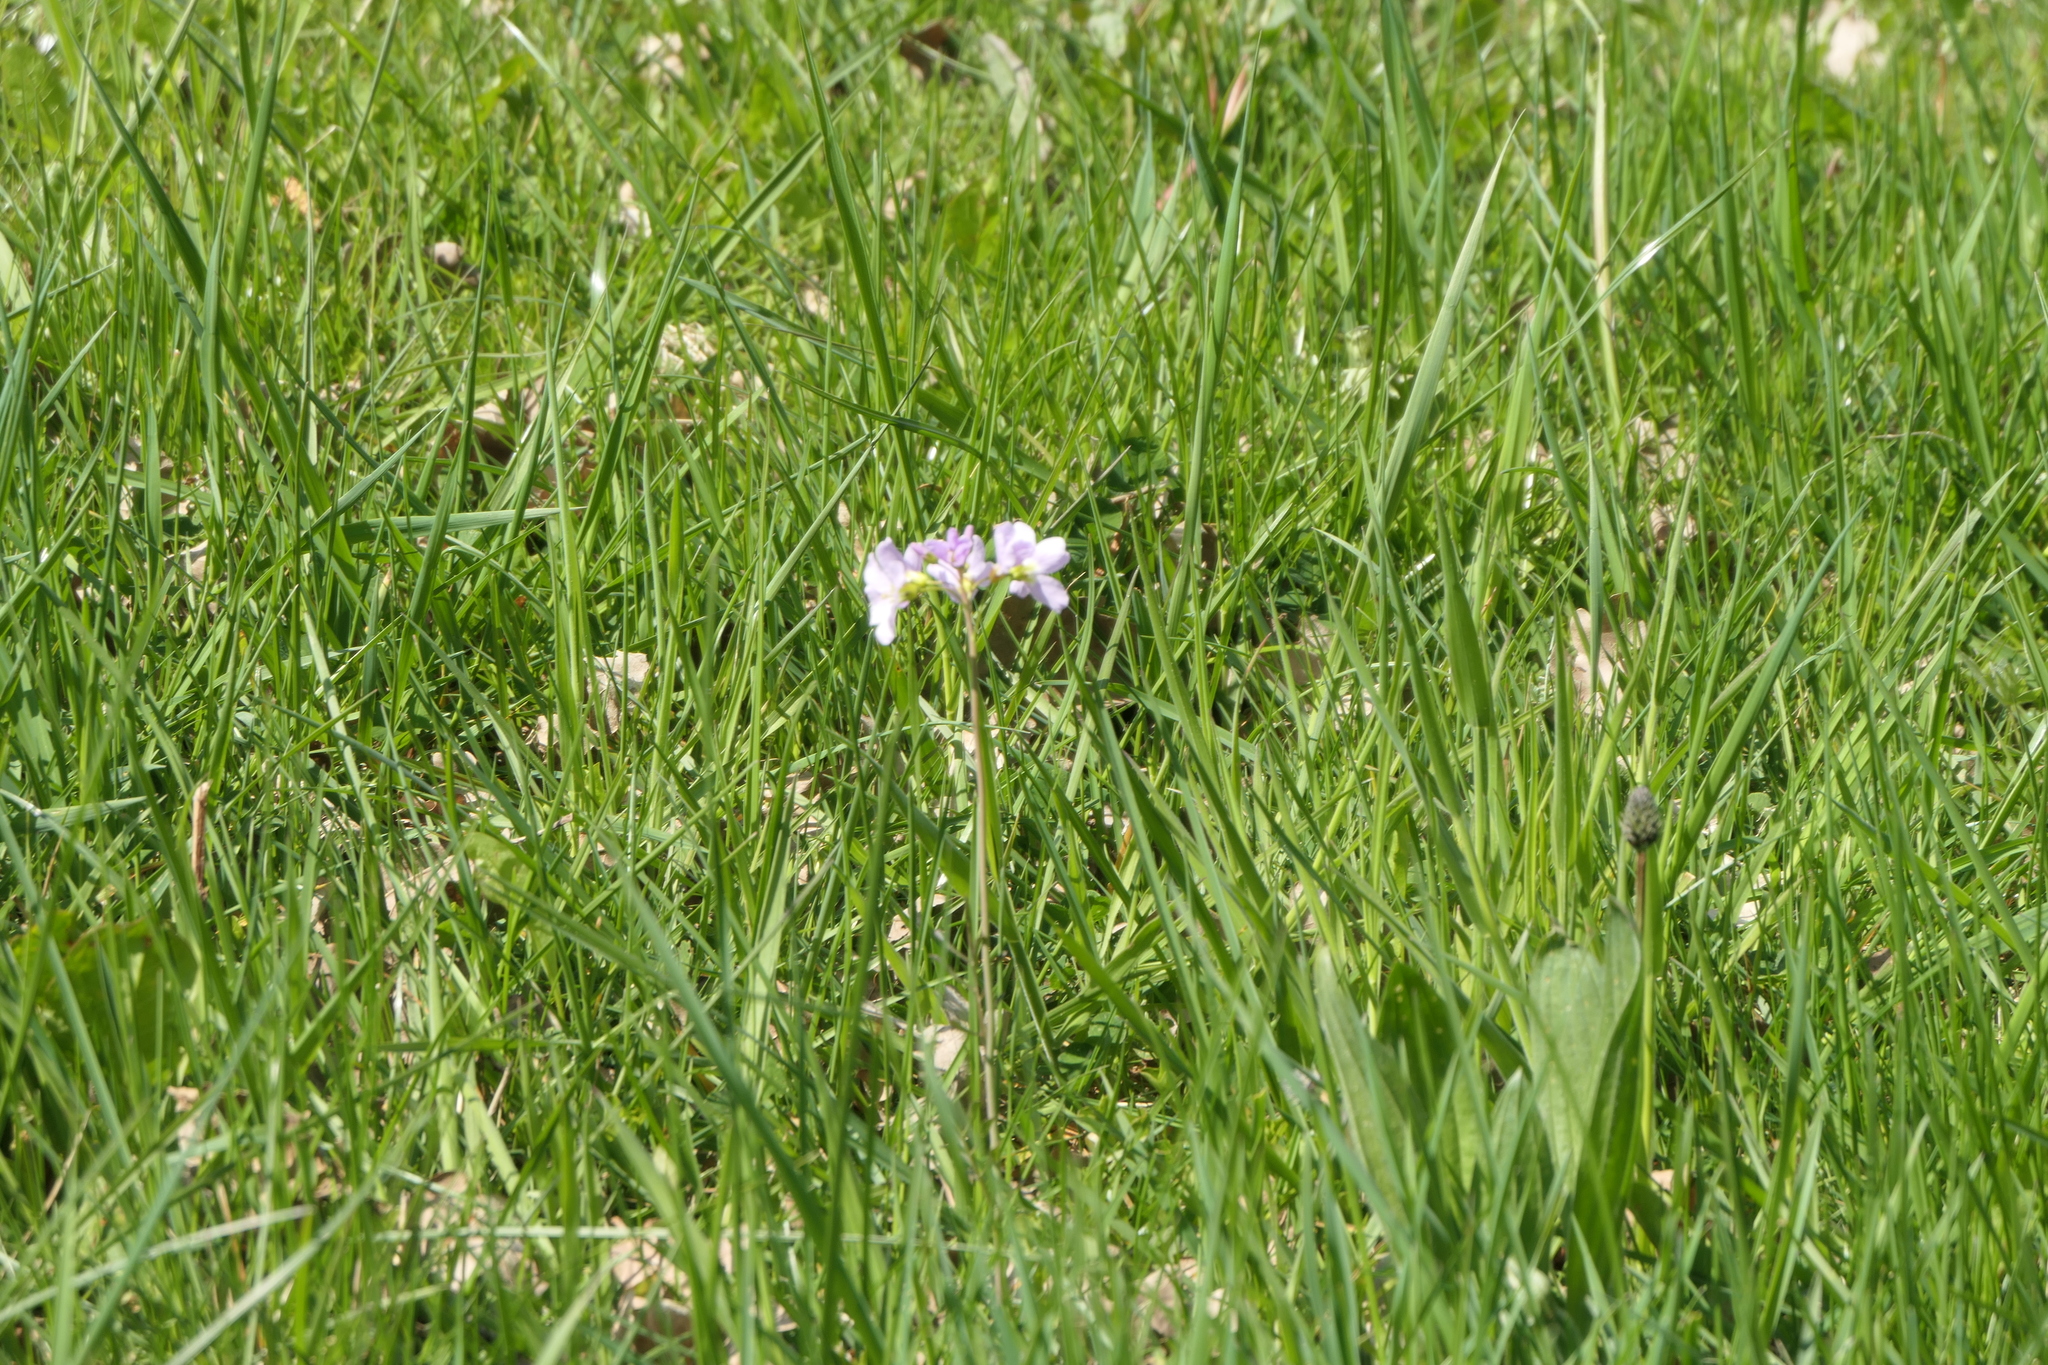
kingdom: Plantae
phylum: Tracheophyta
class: Magnoliopsida
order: Brassicales
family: Brassicaceae
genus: Cardamine
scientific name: Cardamine pratensis
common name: Cuckoo flower
